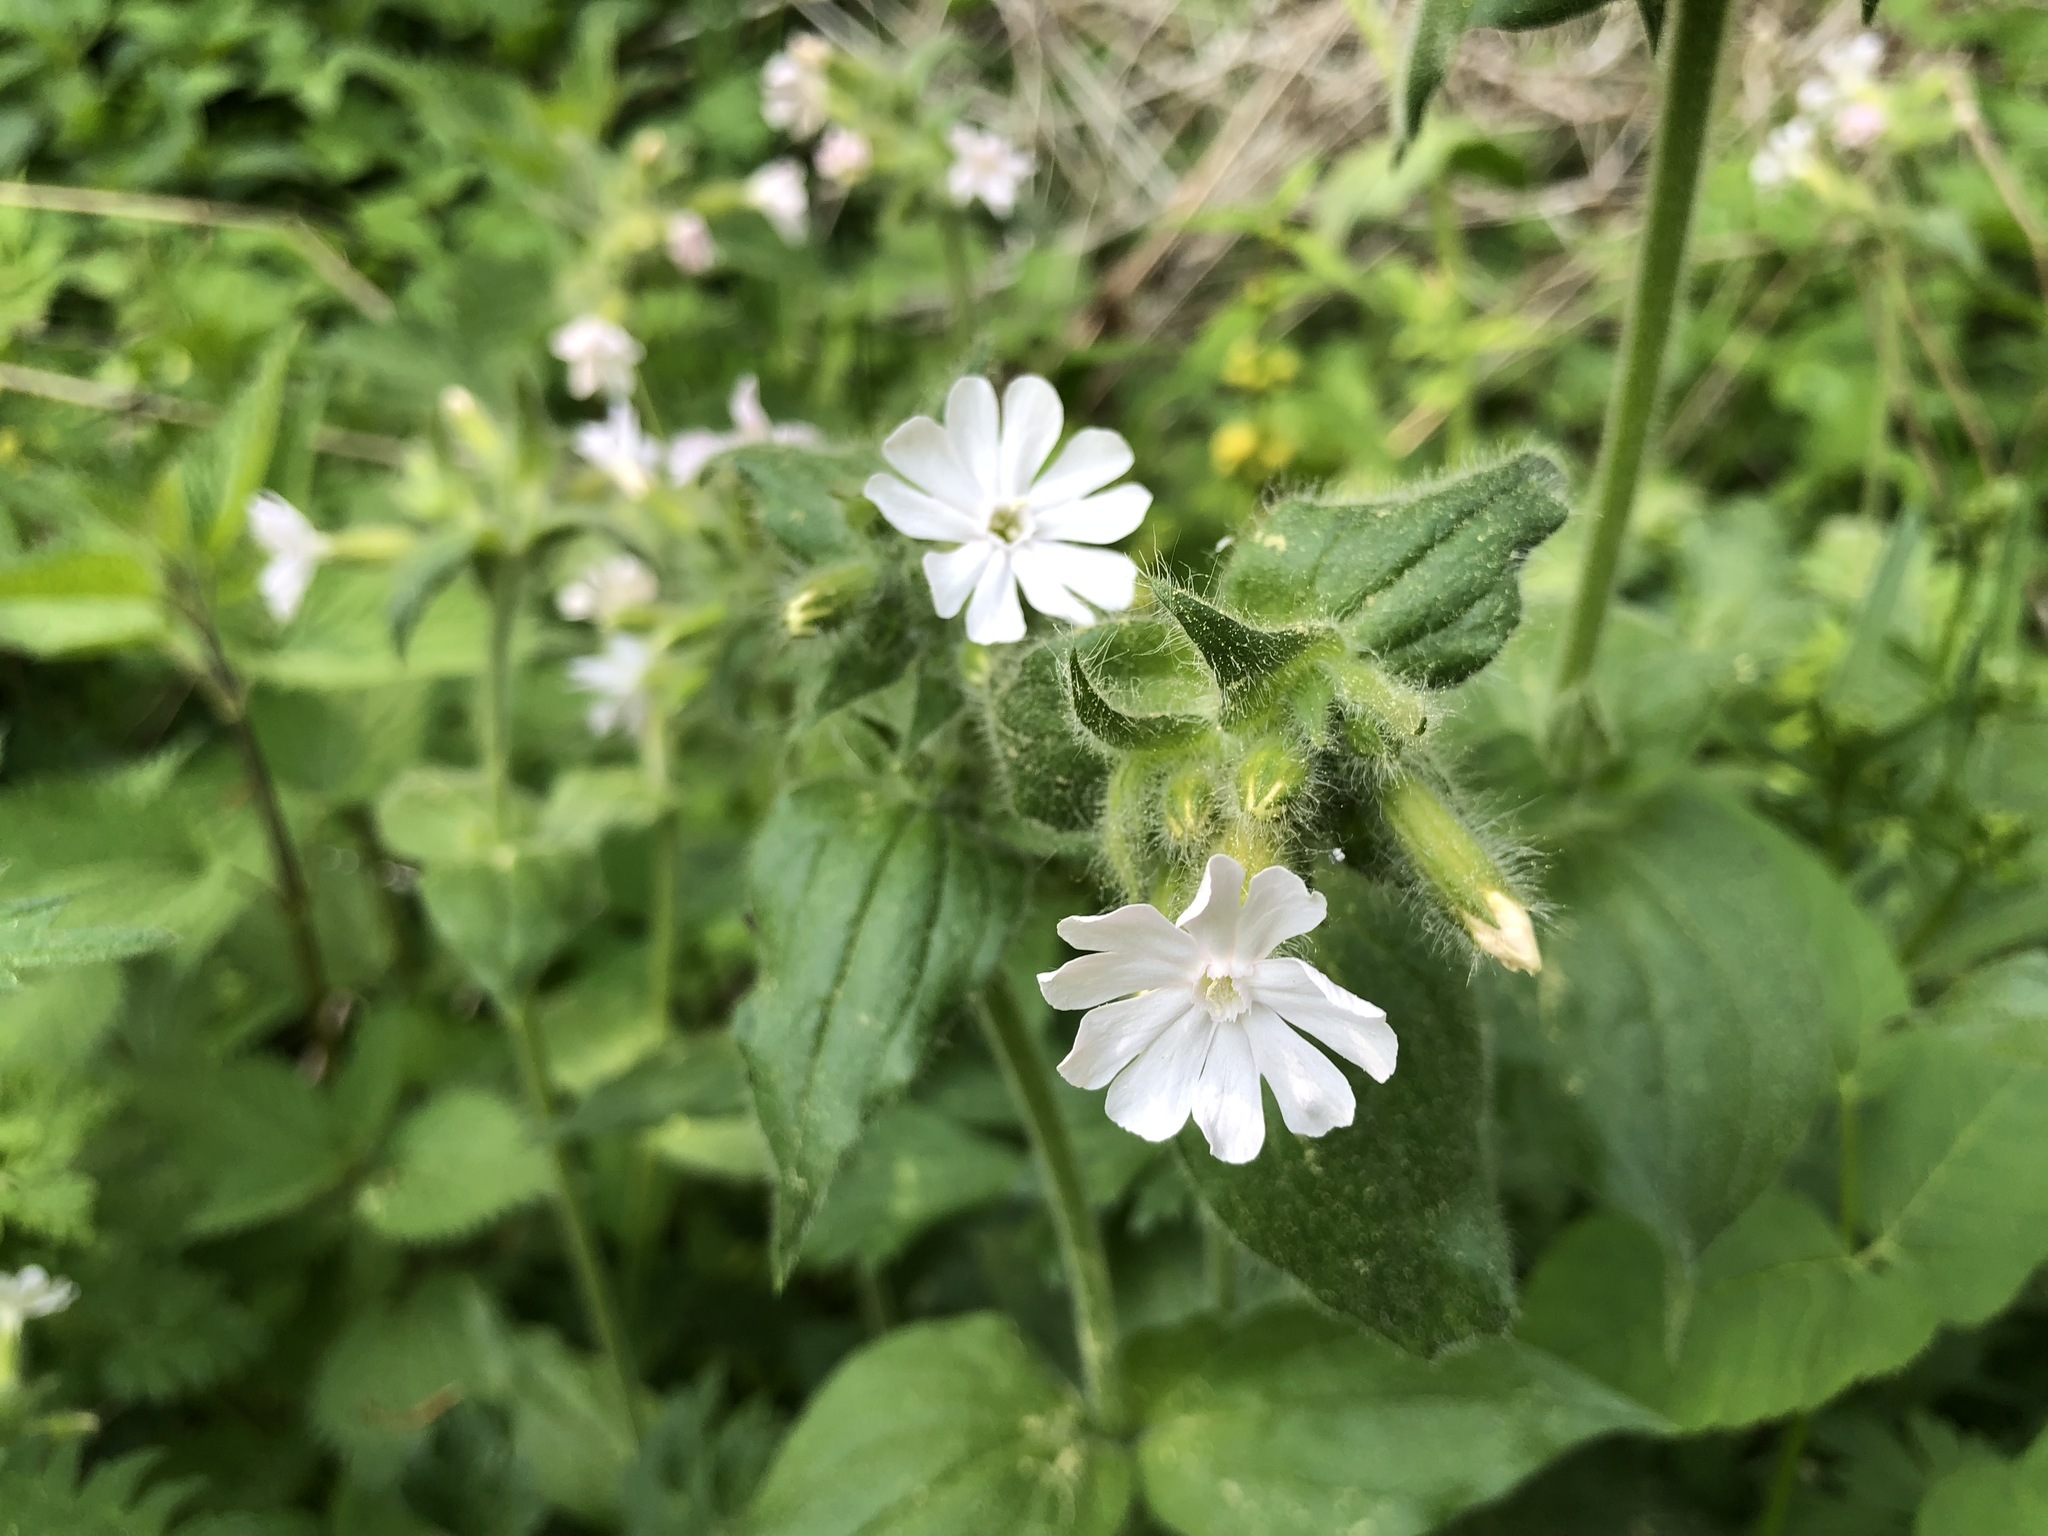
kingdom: Plantae
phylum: Tracheophyta
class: Magnoliopsida
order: Caryophyllales
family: Caryophyllaceae
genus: Silene
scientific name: Silene latifolia
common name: White campion
